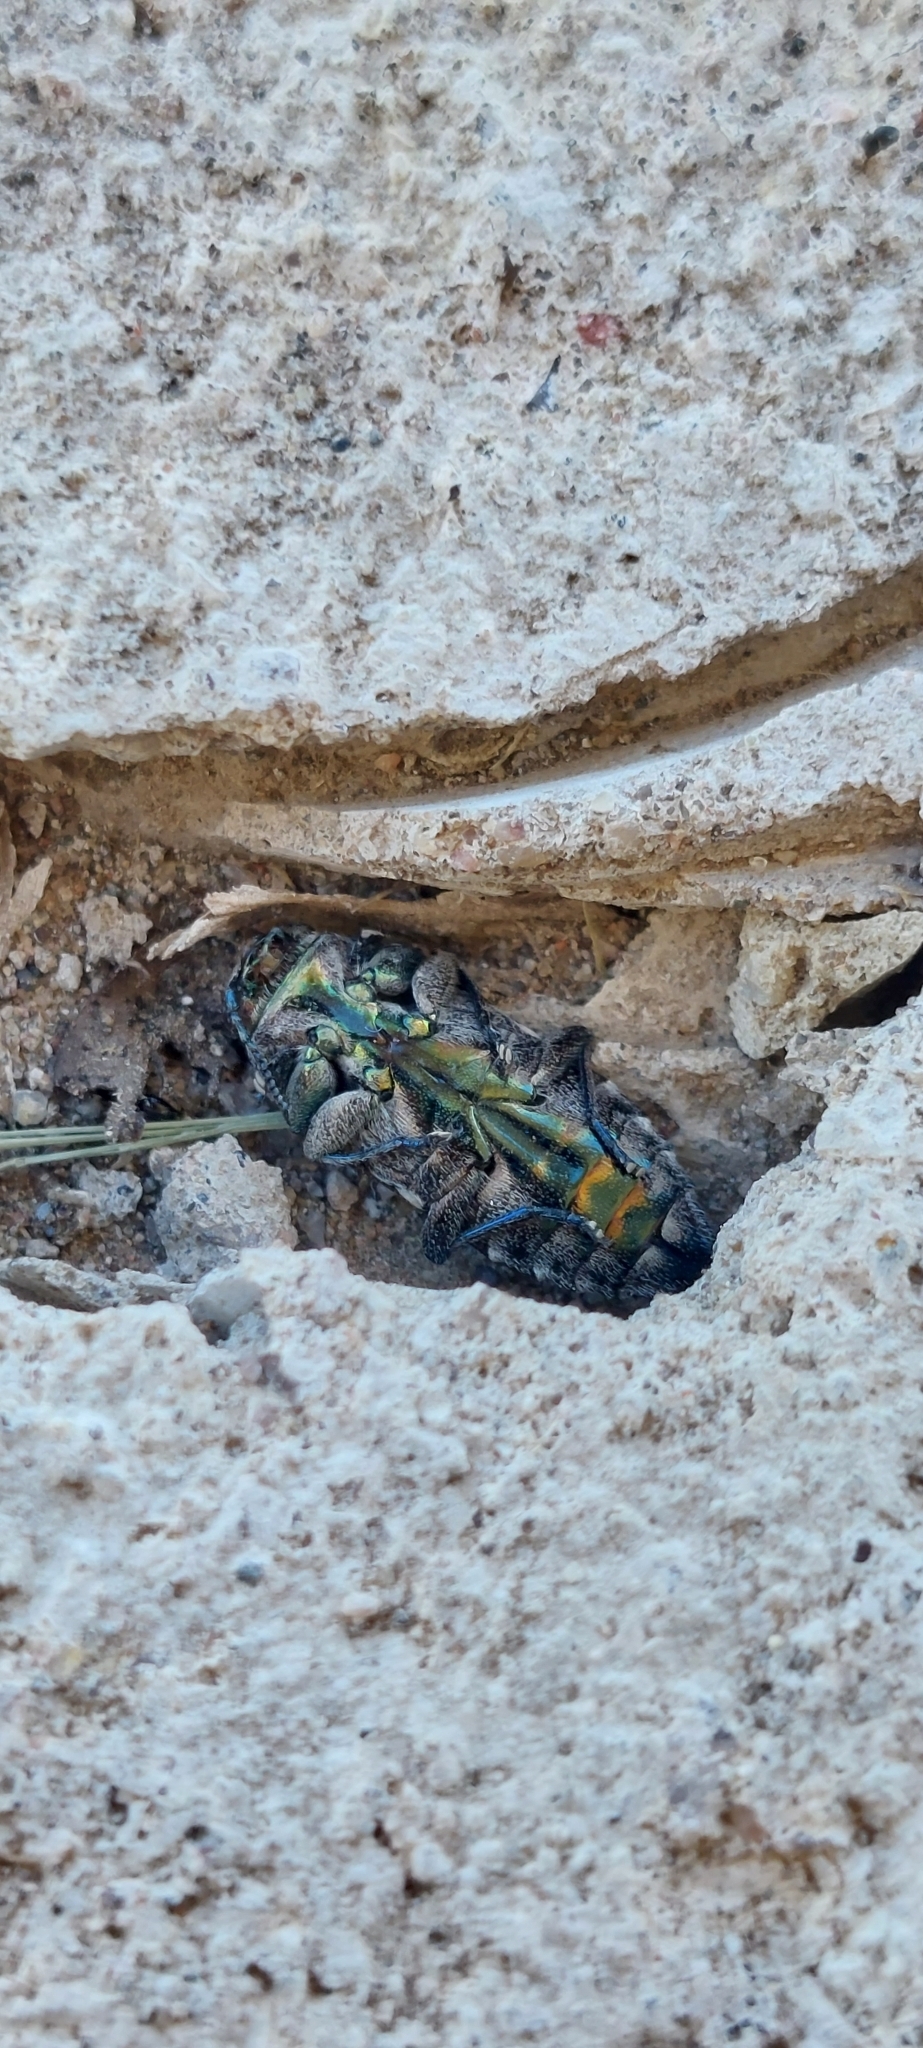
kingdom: Animalia
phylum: Arthropoda
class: Insecta
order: Coleoptera
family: Buprestidae
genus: Chrysobothris
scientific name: Chrysobothris holochalcea
